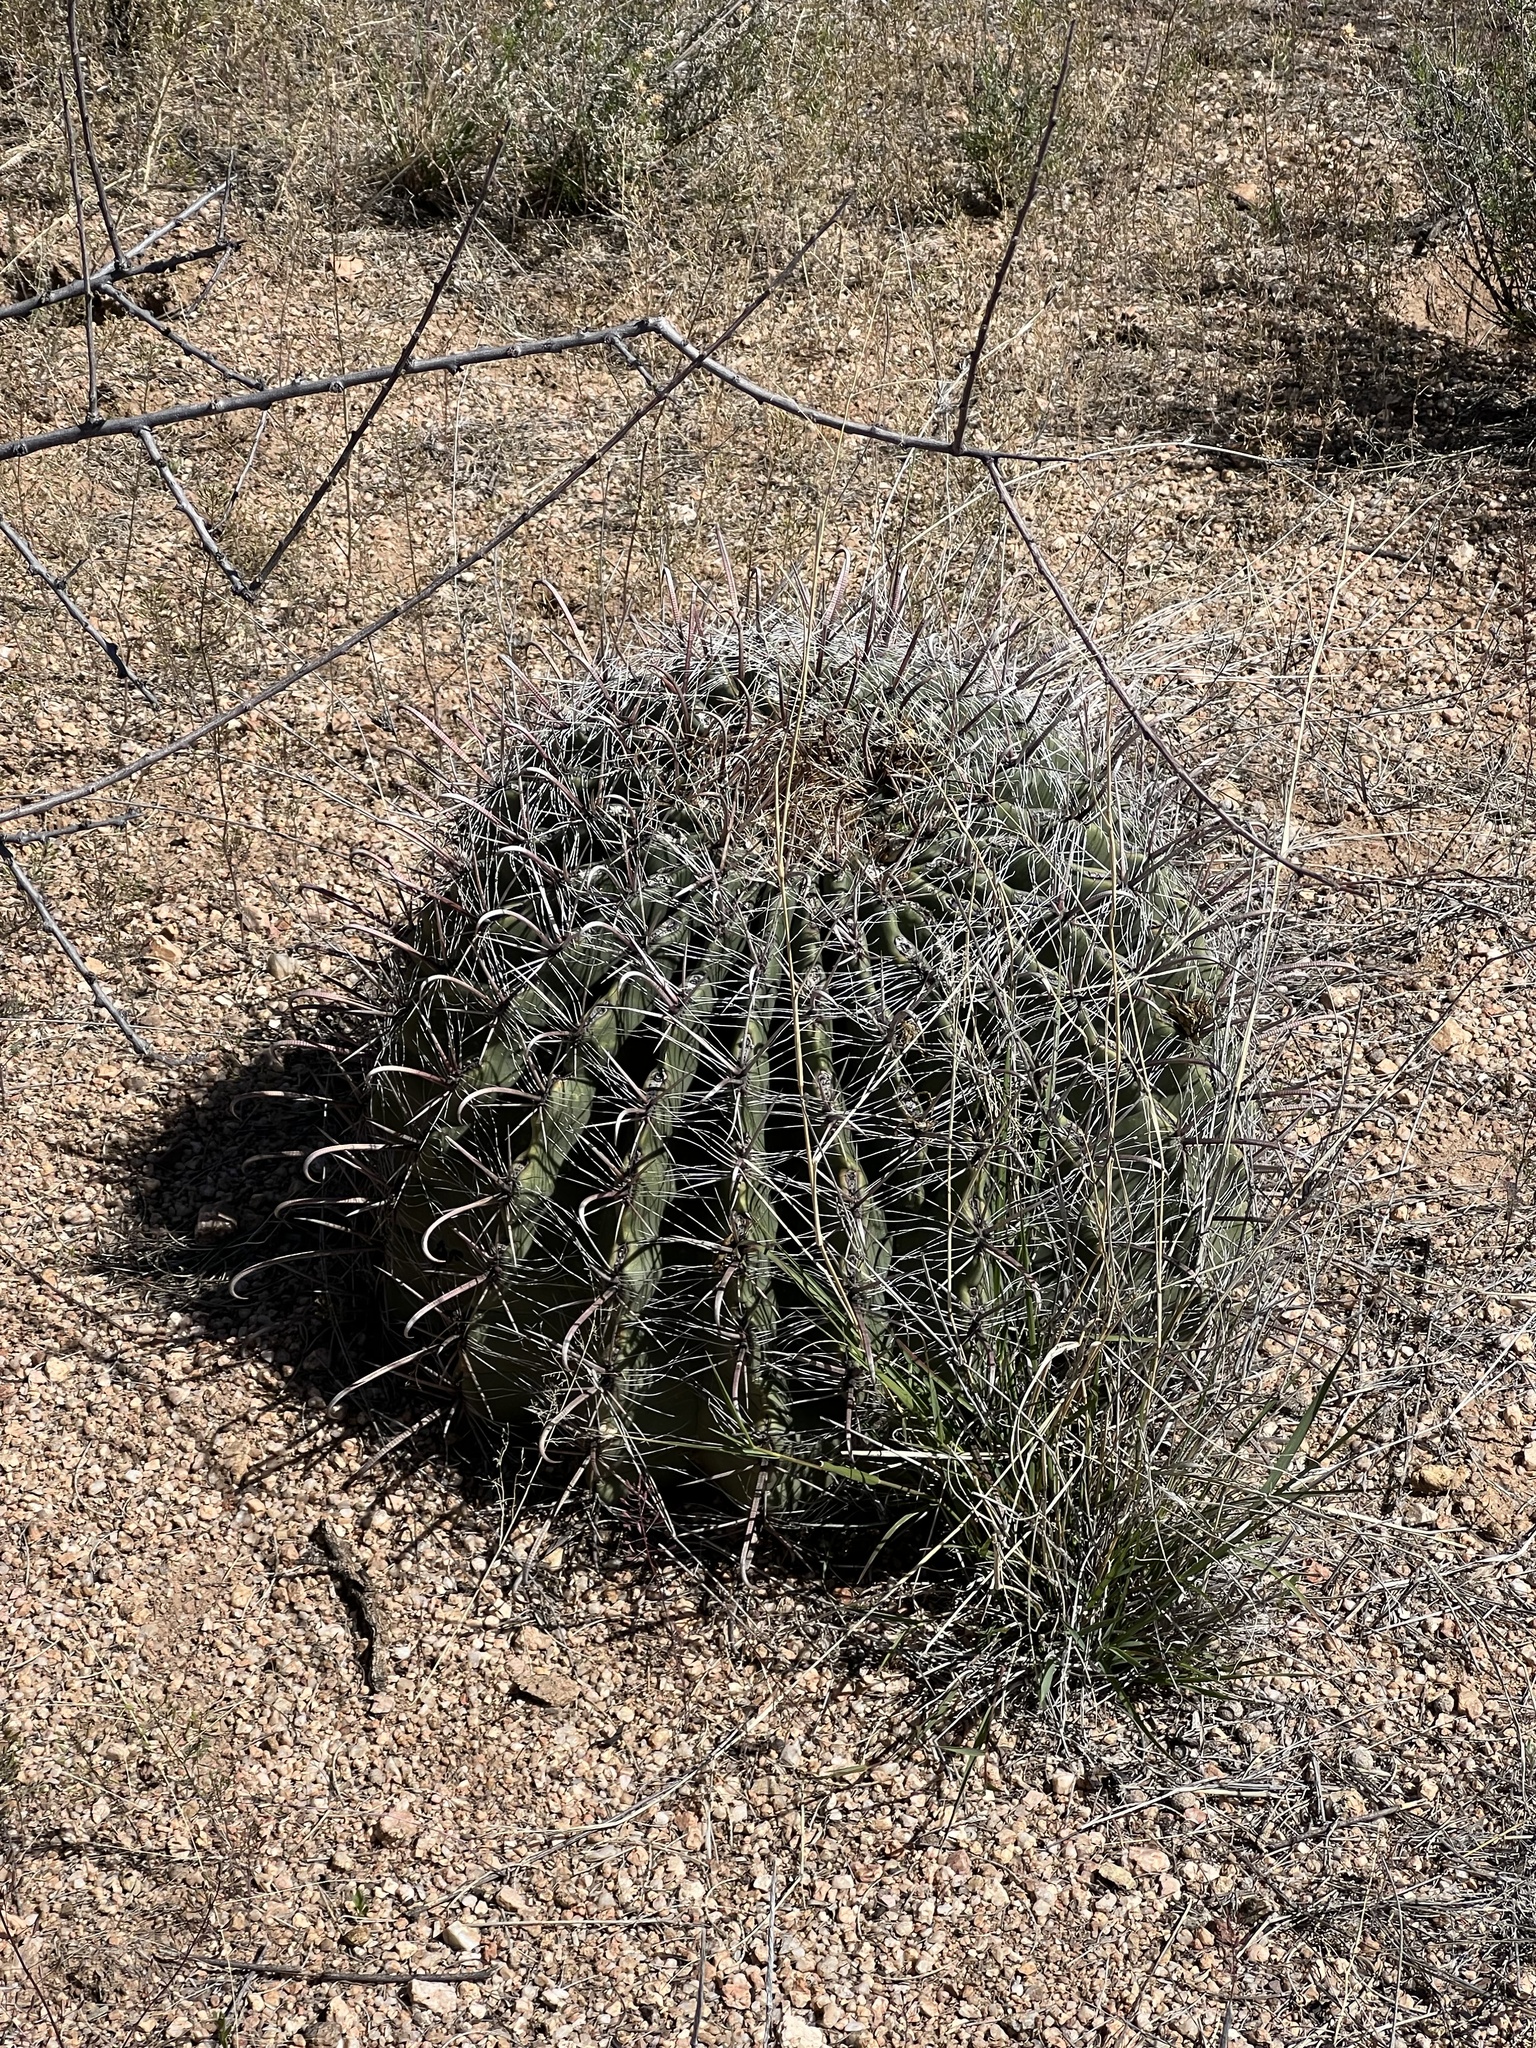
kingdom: Plantae
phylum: Tracheophyta
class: Magnoliopsida
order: Caryophyllales
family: Cactaceae
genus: Ferocactus
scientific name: Ferocactus wislizeni
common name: Candy barrel cactus
